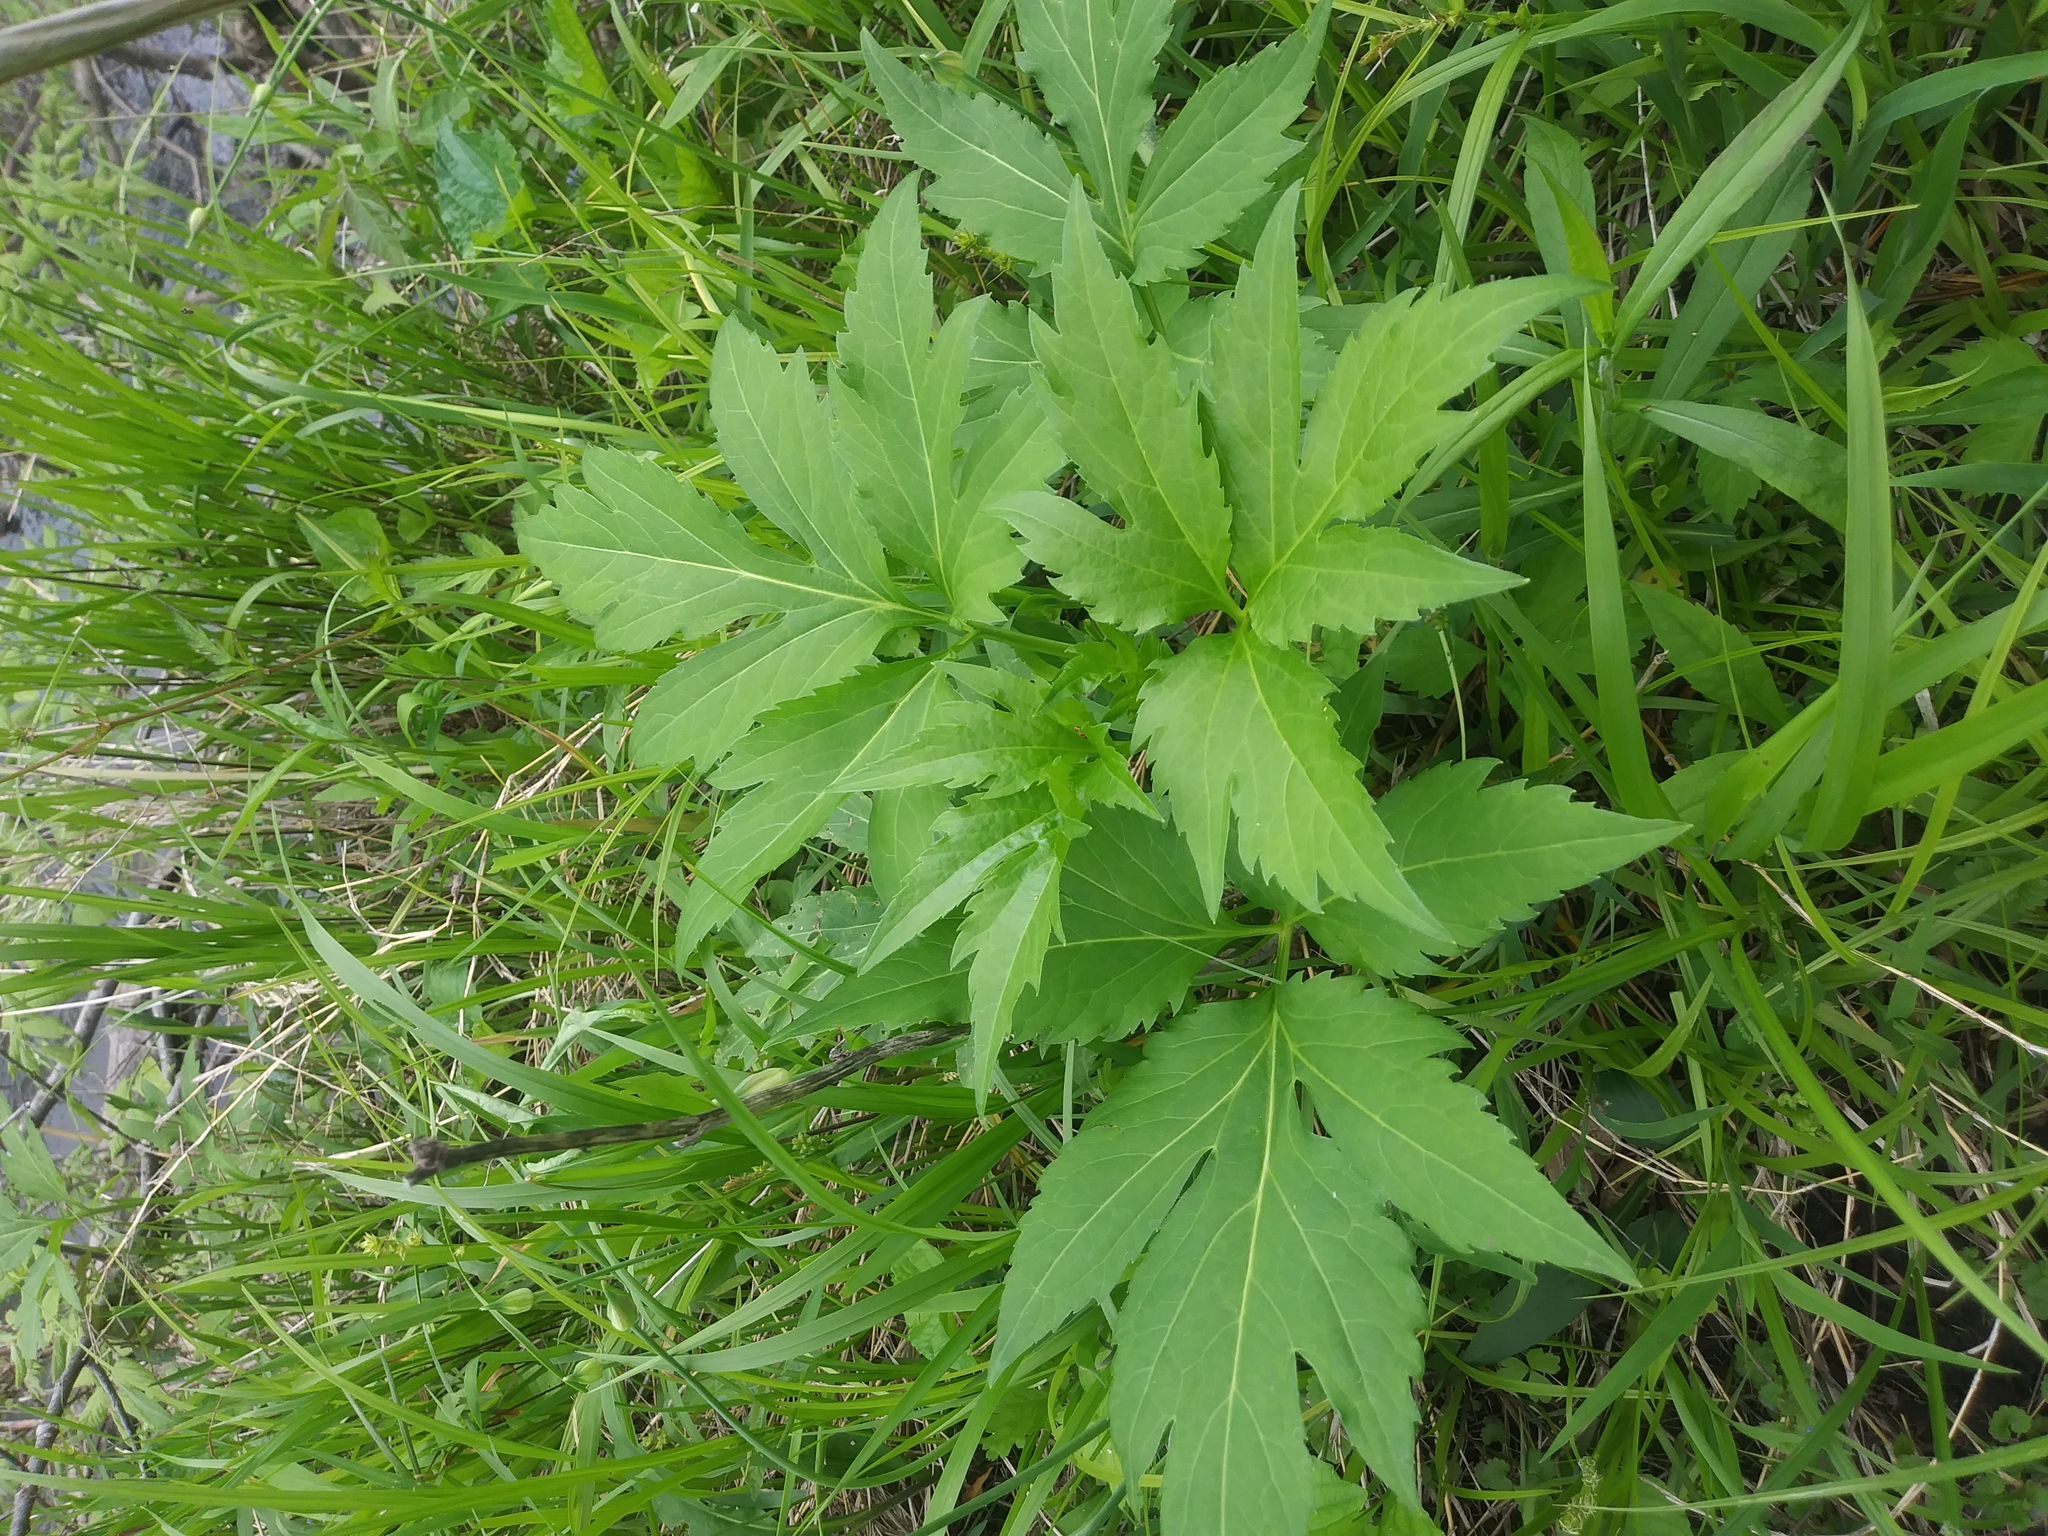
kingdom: Plantae
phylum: Tracheophyta
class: Magnoliopsida
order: Asterales
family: Asteraceae
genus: Rudbeckia
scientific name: Rudbeckia laciniata
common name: Coneflower
